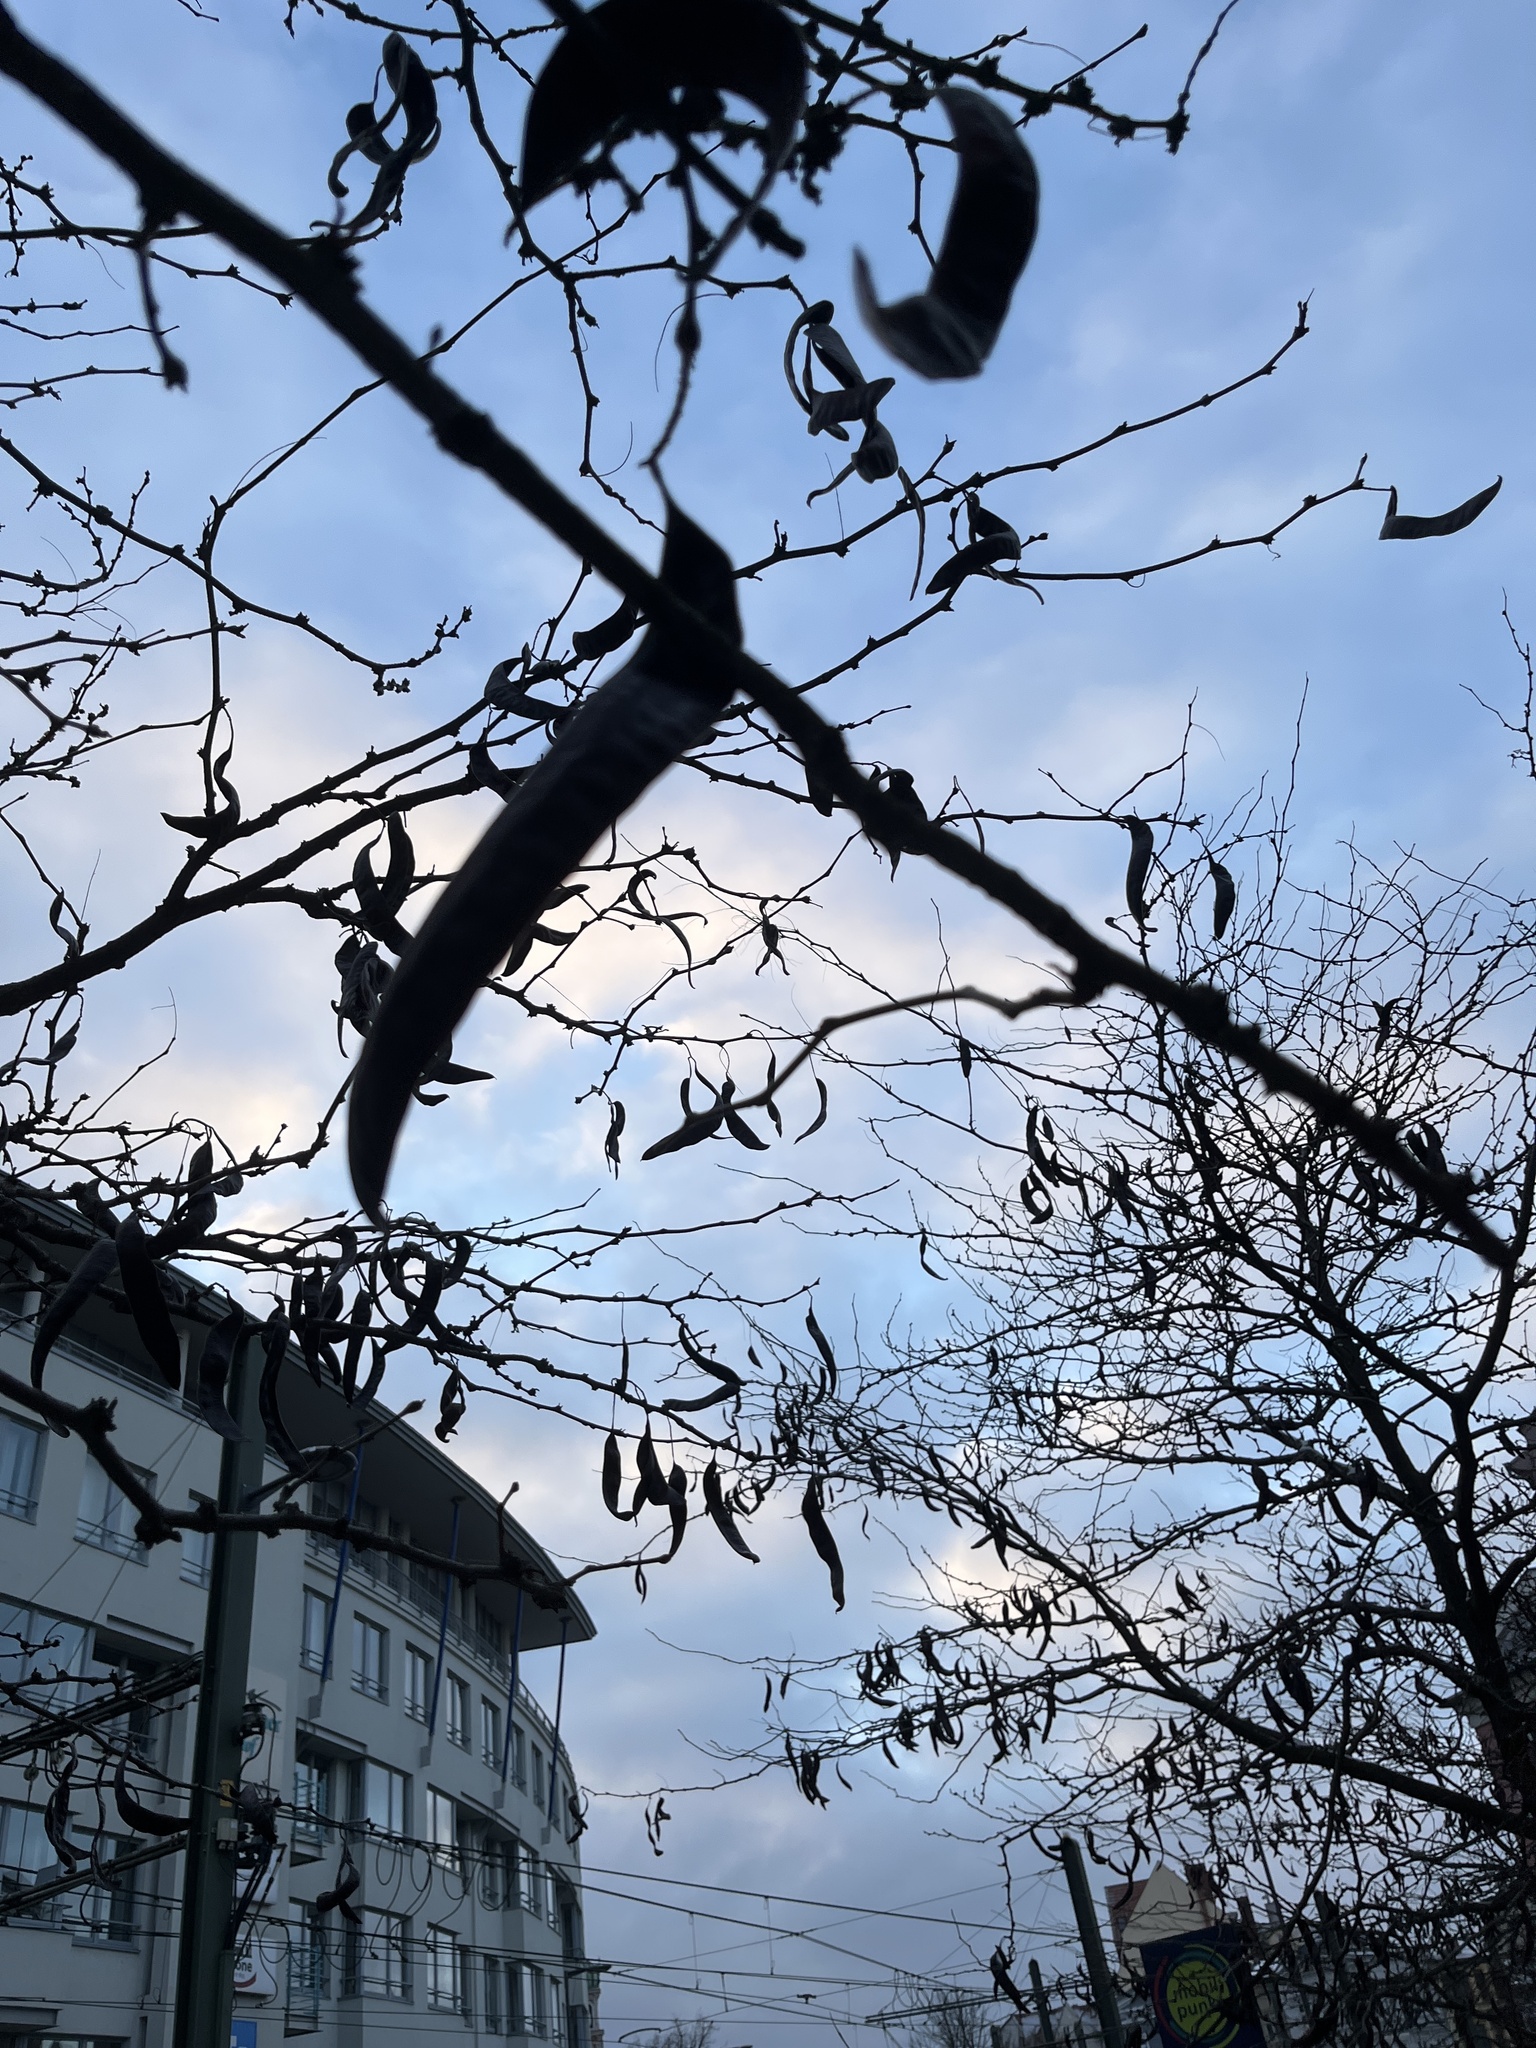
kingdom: Plantae
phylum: Tracheophyta
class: Magnoliopsida
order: Fabales
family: Fabaceae
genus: Gleditsia
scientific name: Gleditsia triacanthos
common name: Common honeylocust
